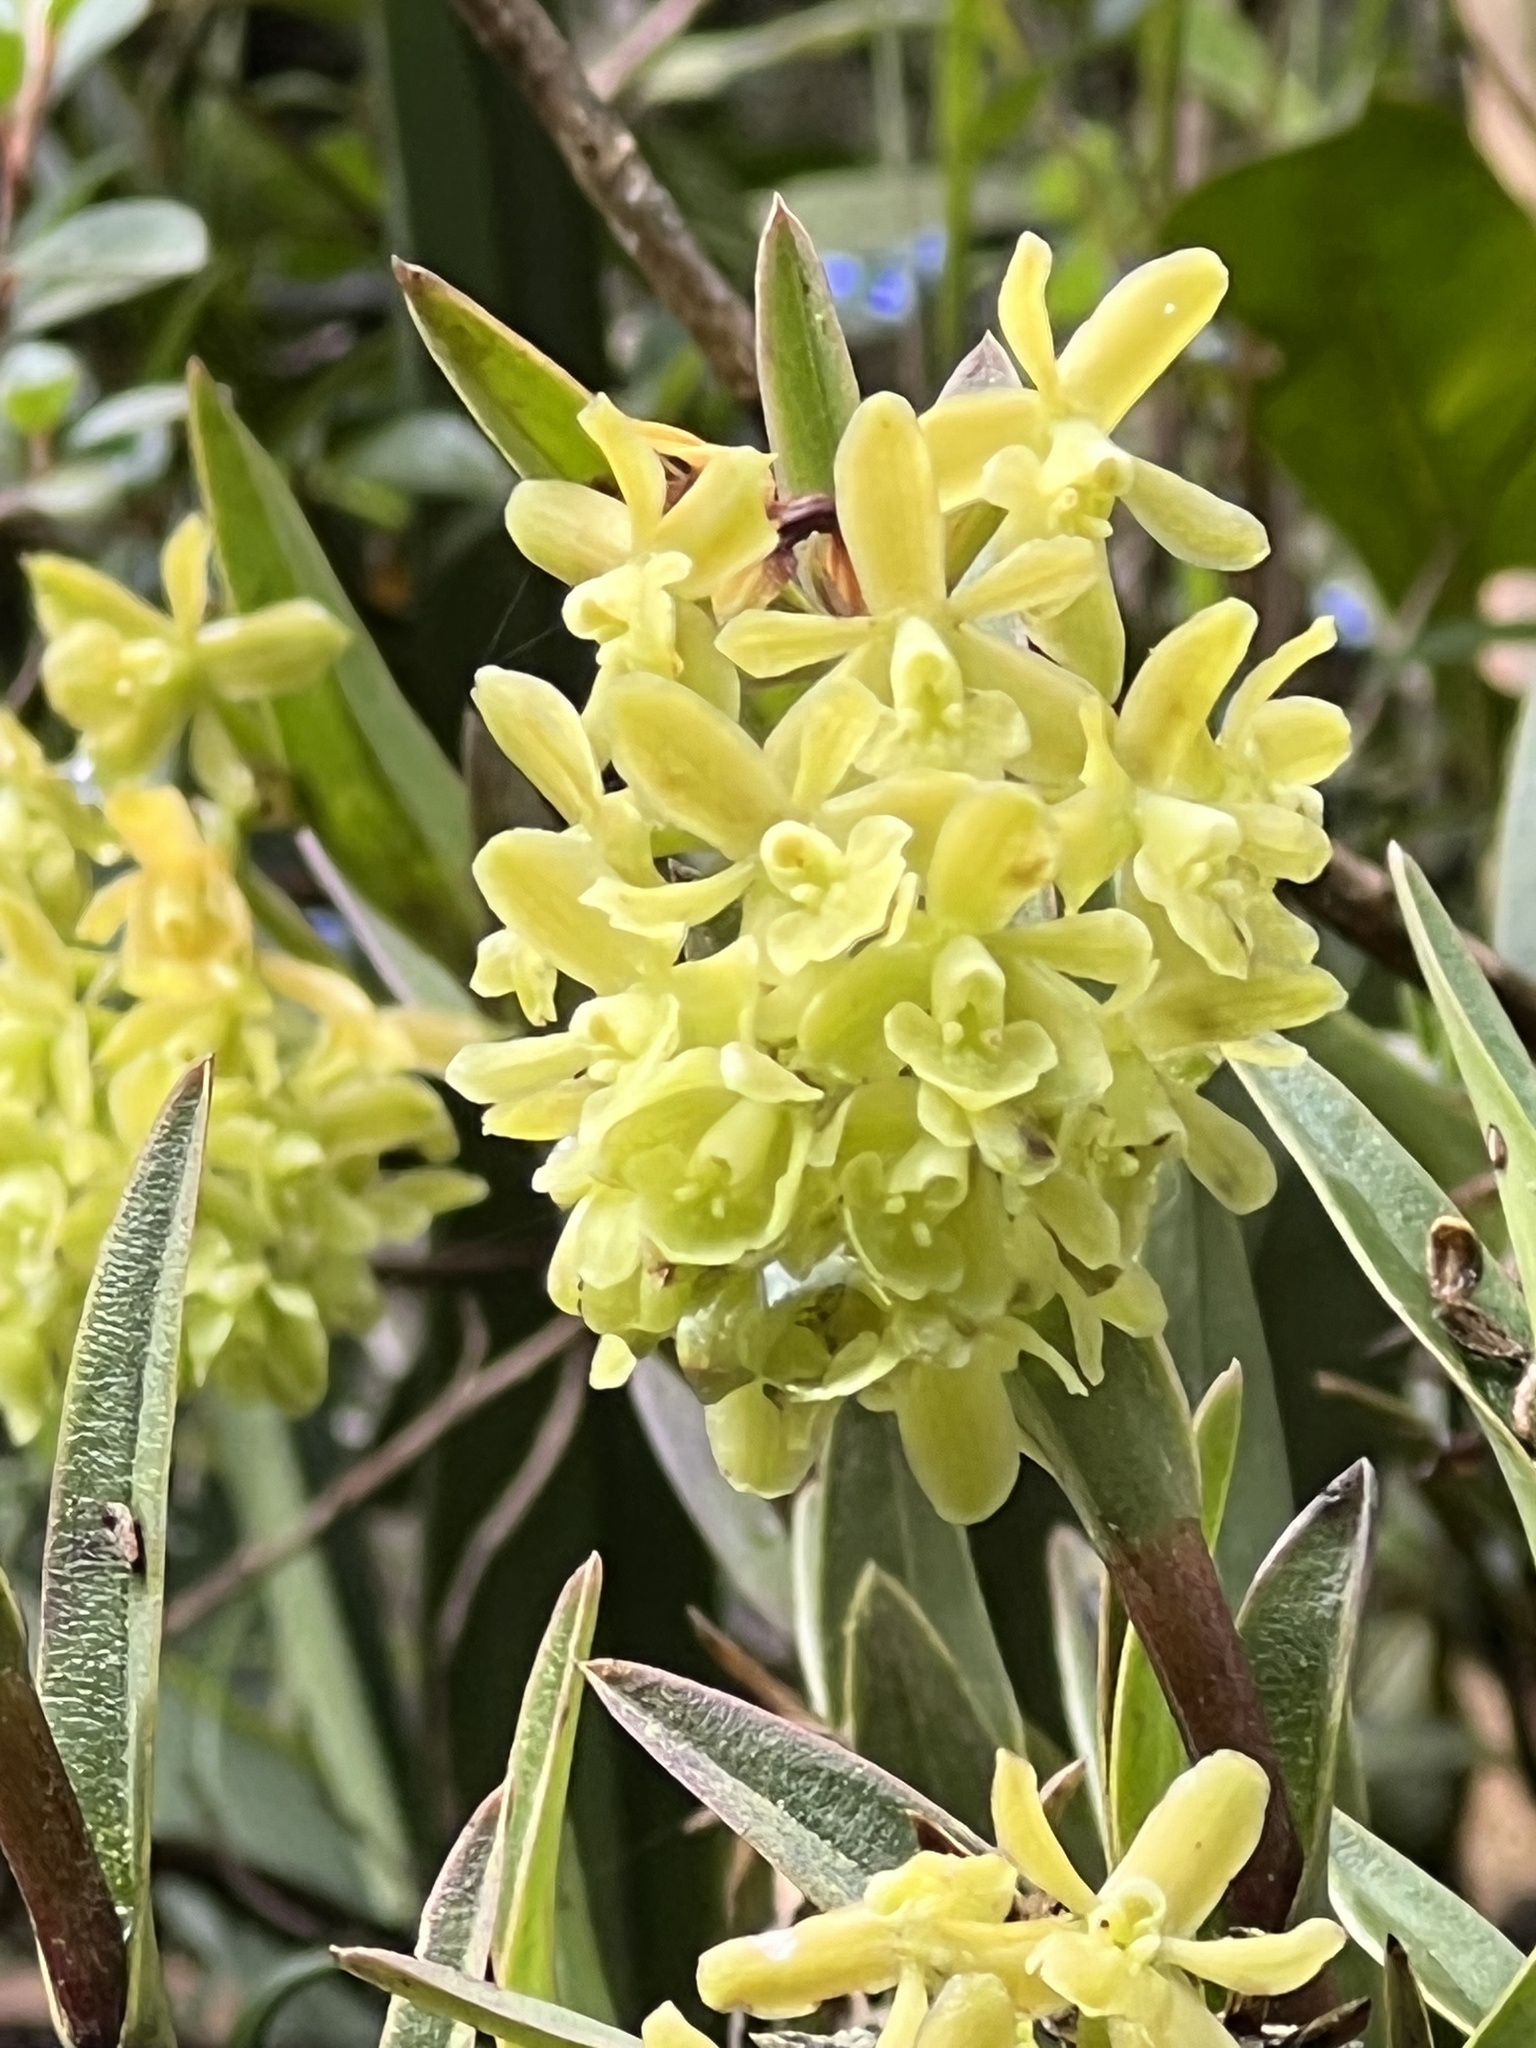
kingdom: Plantae
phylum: Tracheophyta
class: Liliopsida
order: Asparagales
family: Orchidaceae
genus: Epidendrum
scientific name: Epidendrum zipaquiranum
